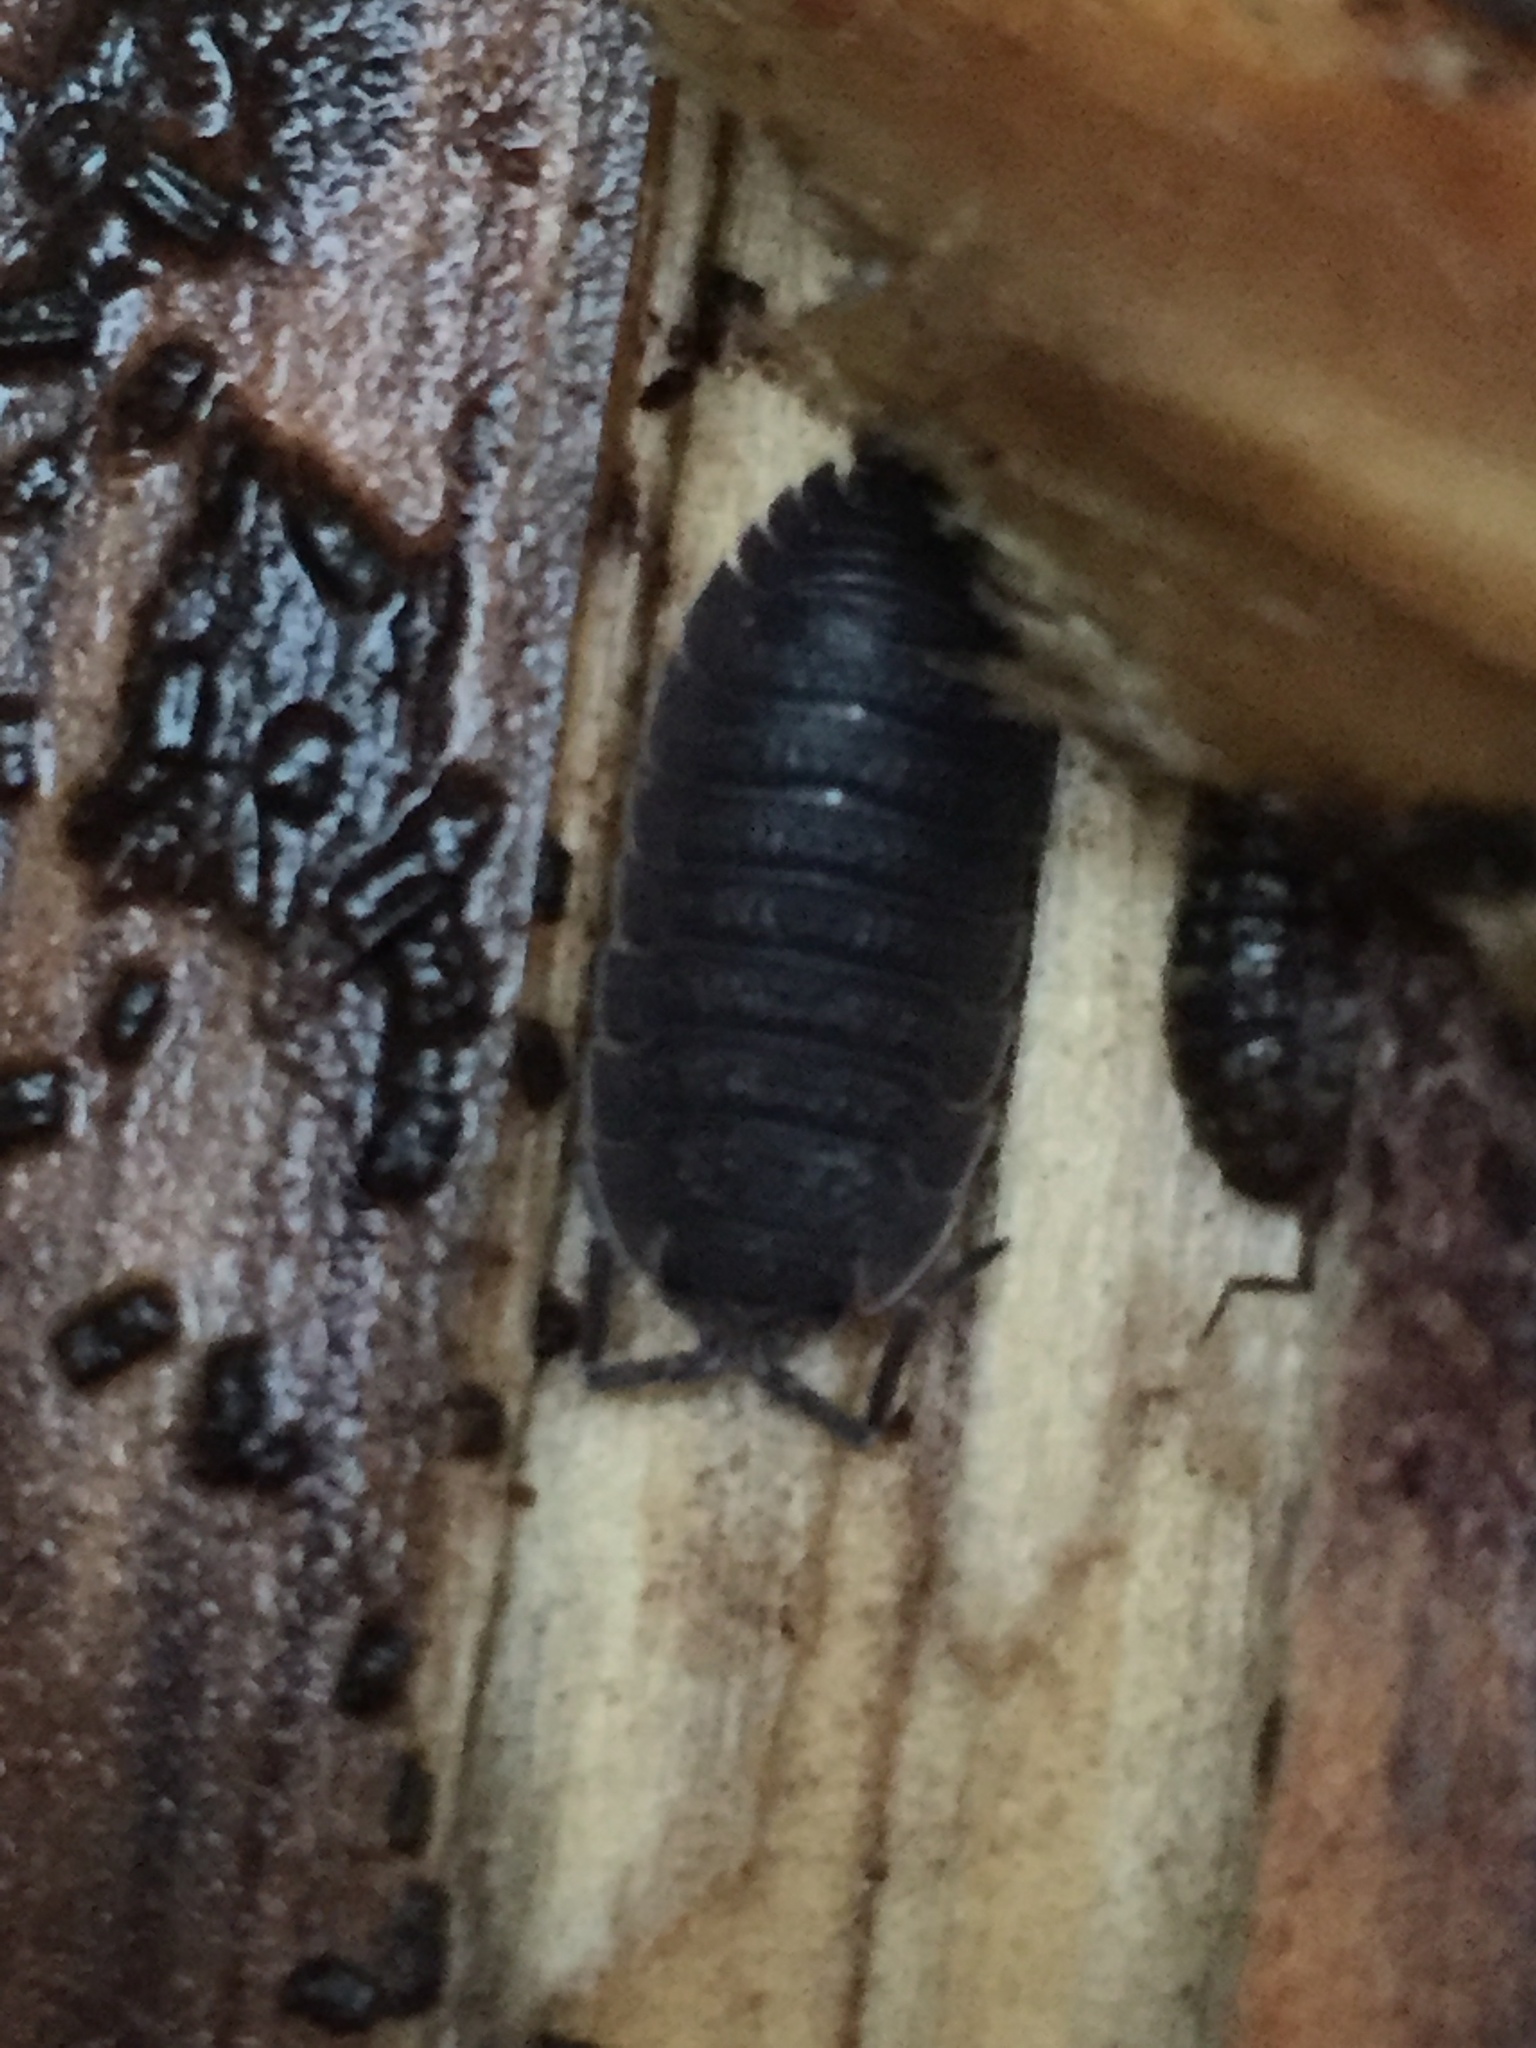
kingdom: Animalia
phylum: Arthropoda
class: Malacostraca
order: Isopoda
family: Porcellionidae
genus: Porcellio
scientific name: Porcellio scaber
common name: Common rough woodlouse
